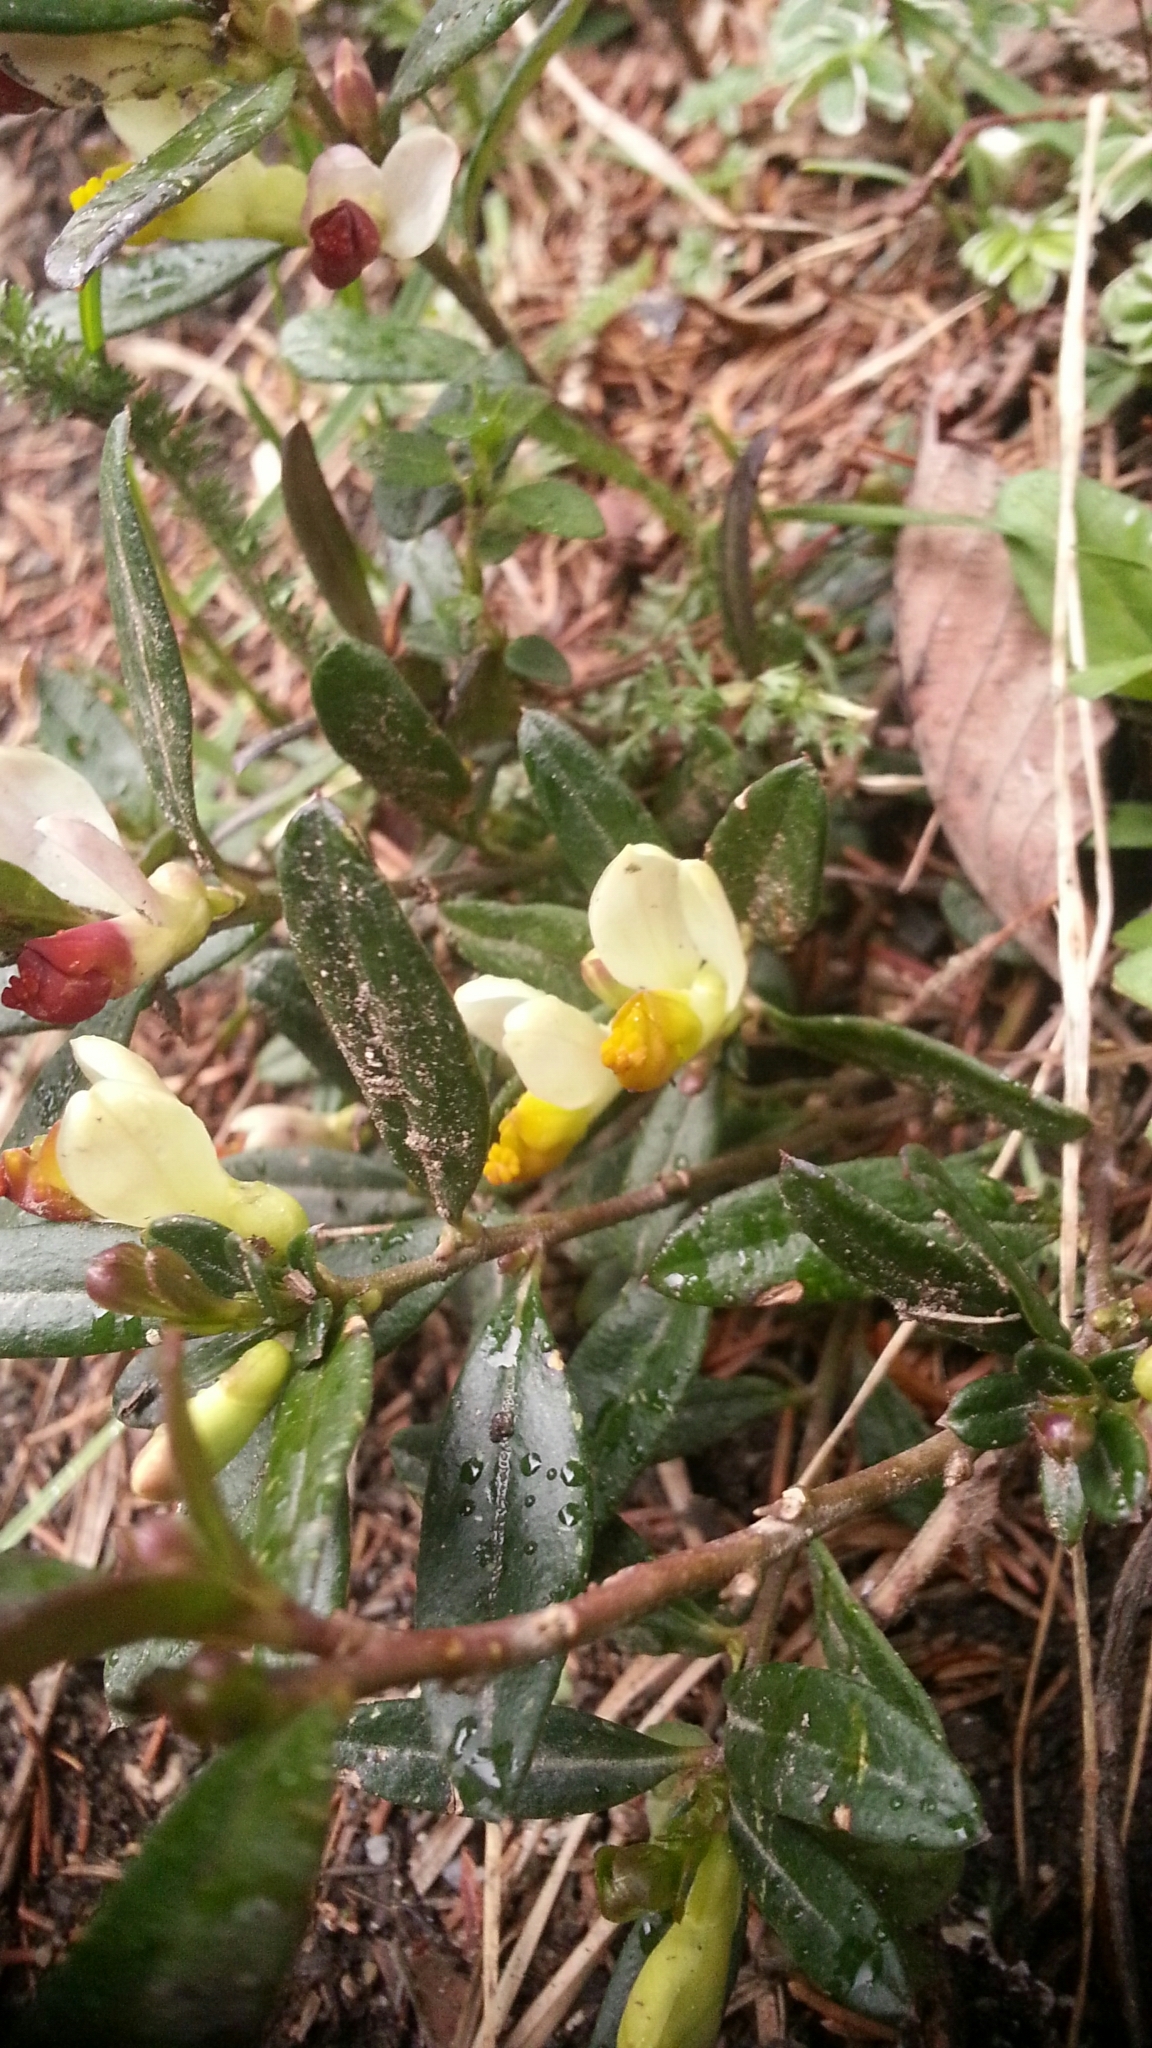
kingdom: Plantae
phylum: Tracheophyta
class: Magnoliopsida
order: Fabales
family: Polygalaceae
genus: Polygaloides
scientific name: Polygaloides chamaebuxus
